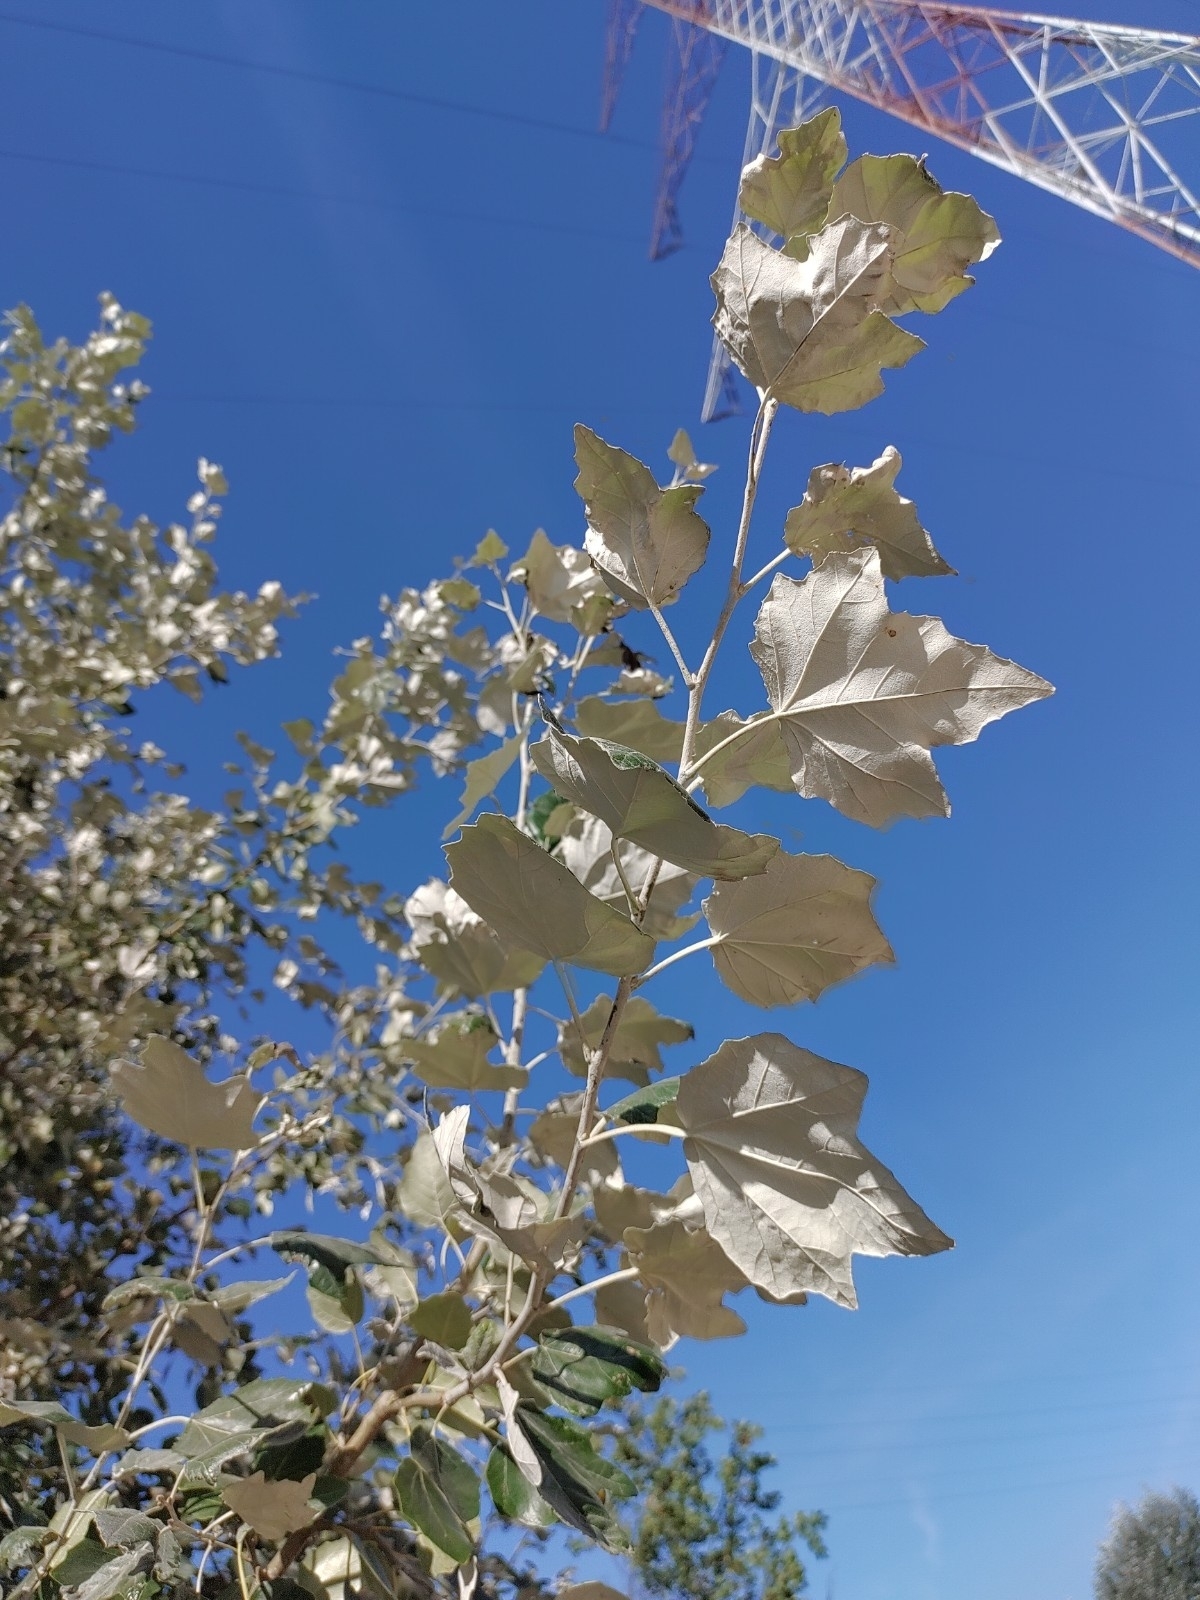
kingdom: Plantae
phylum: Tracheophyta
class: Magnoliopsida
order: Malpighiales
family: Salicaceae
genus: Populus
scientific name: Populus alba
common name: White poplar
